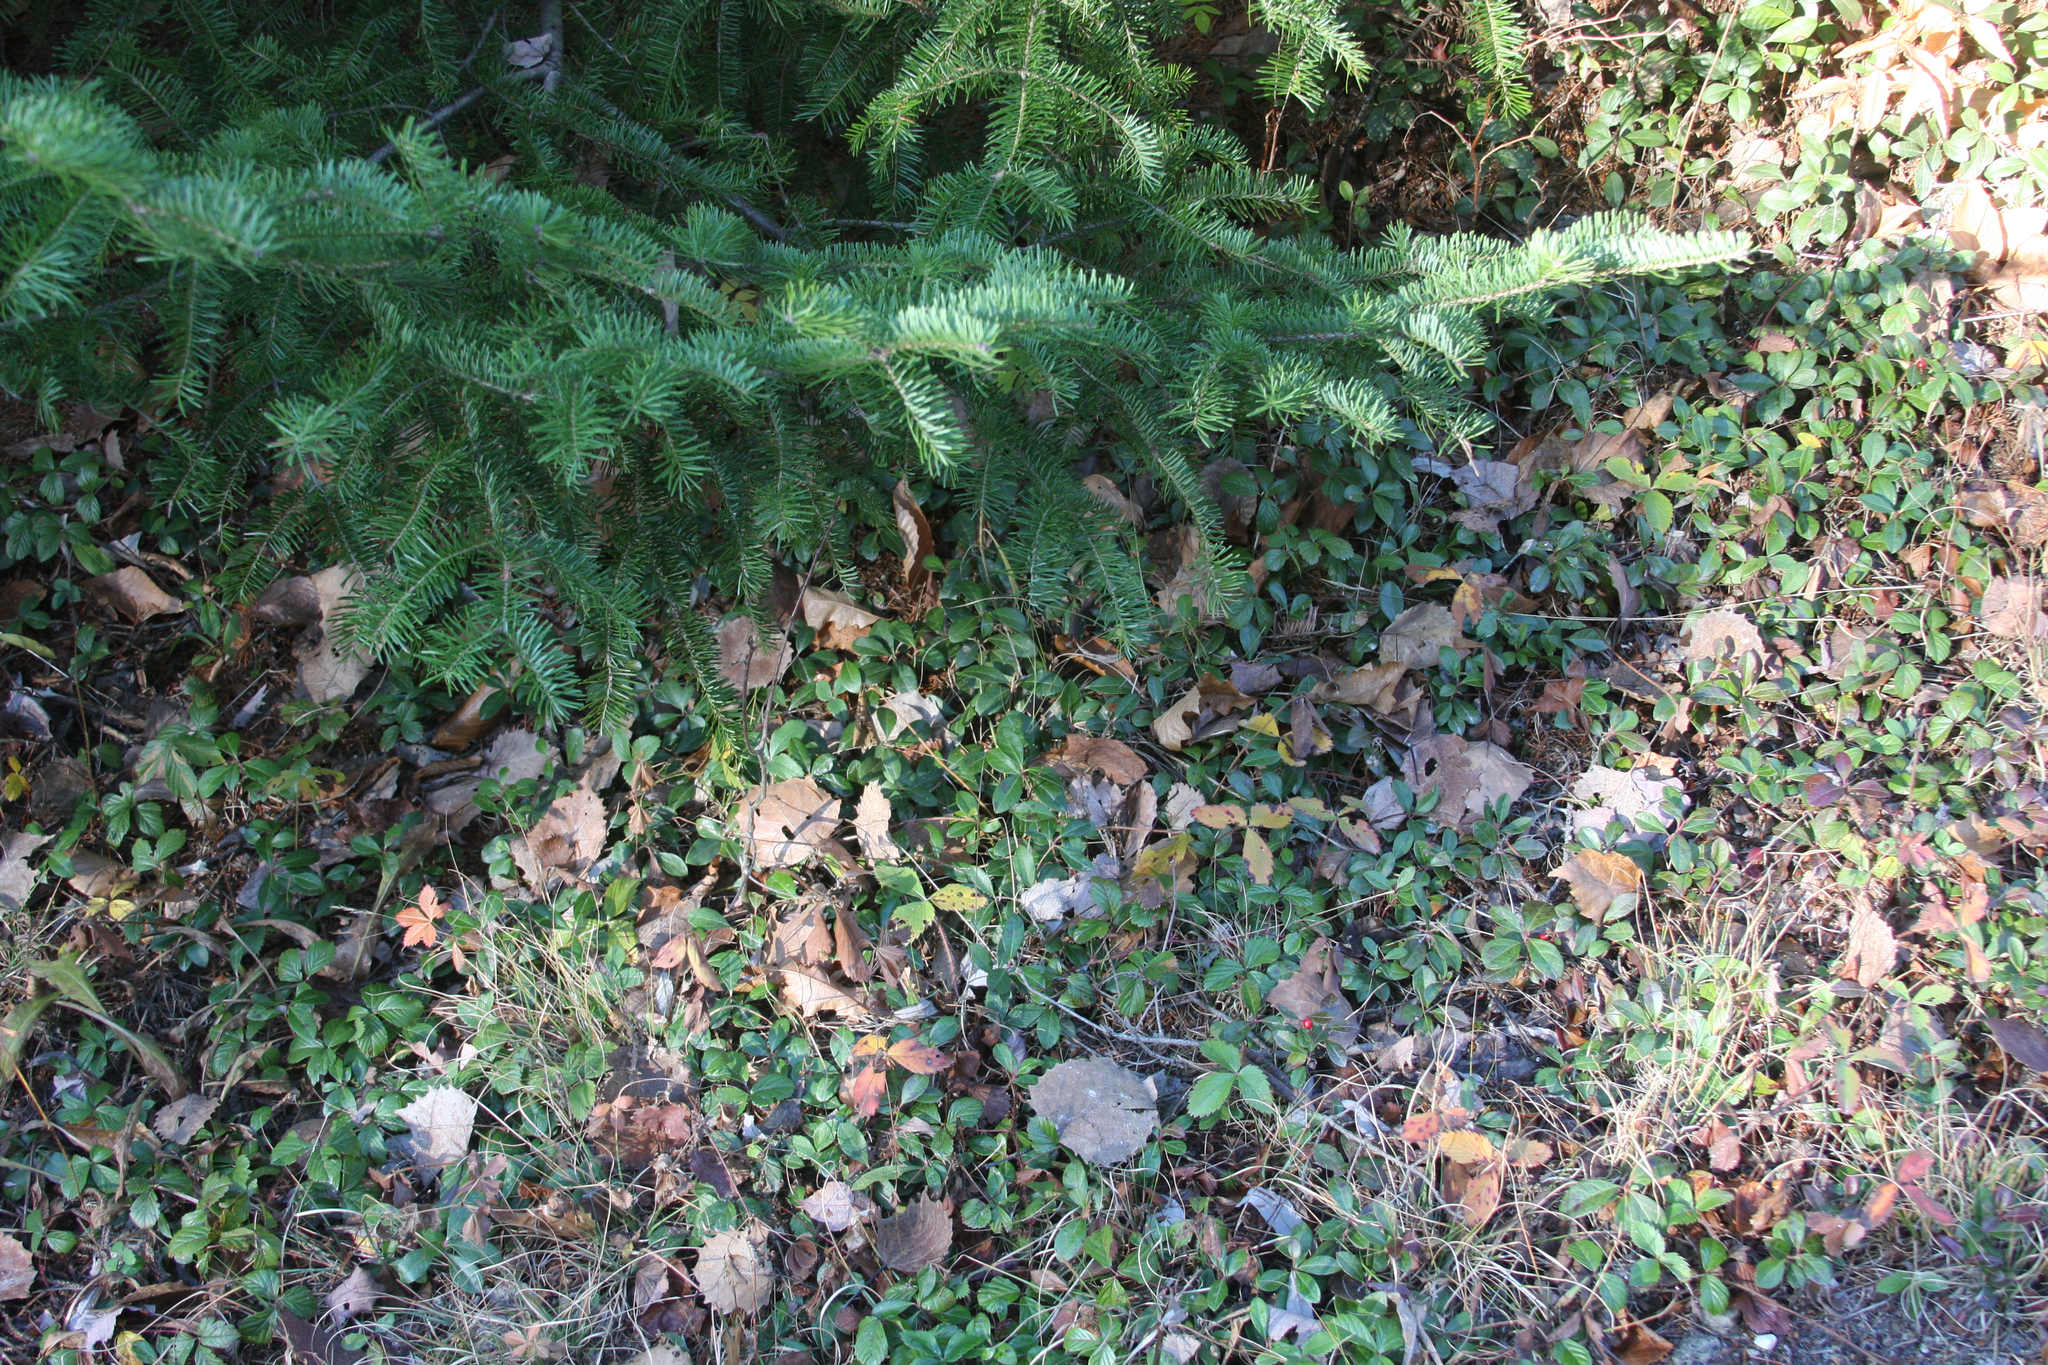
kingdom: Plantae
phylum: Tracheophyta
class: Magnoliopsida
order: Ericales
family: Ericaceae
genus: Gaultheria
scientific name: Gaultheria procumbens
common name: Checkerberry
